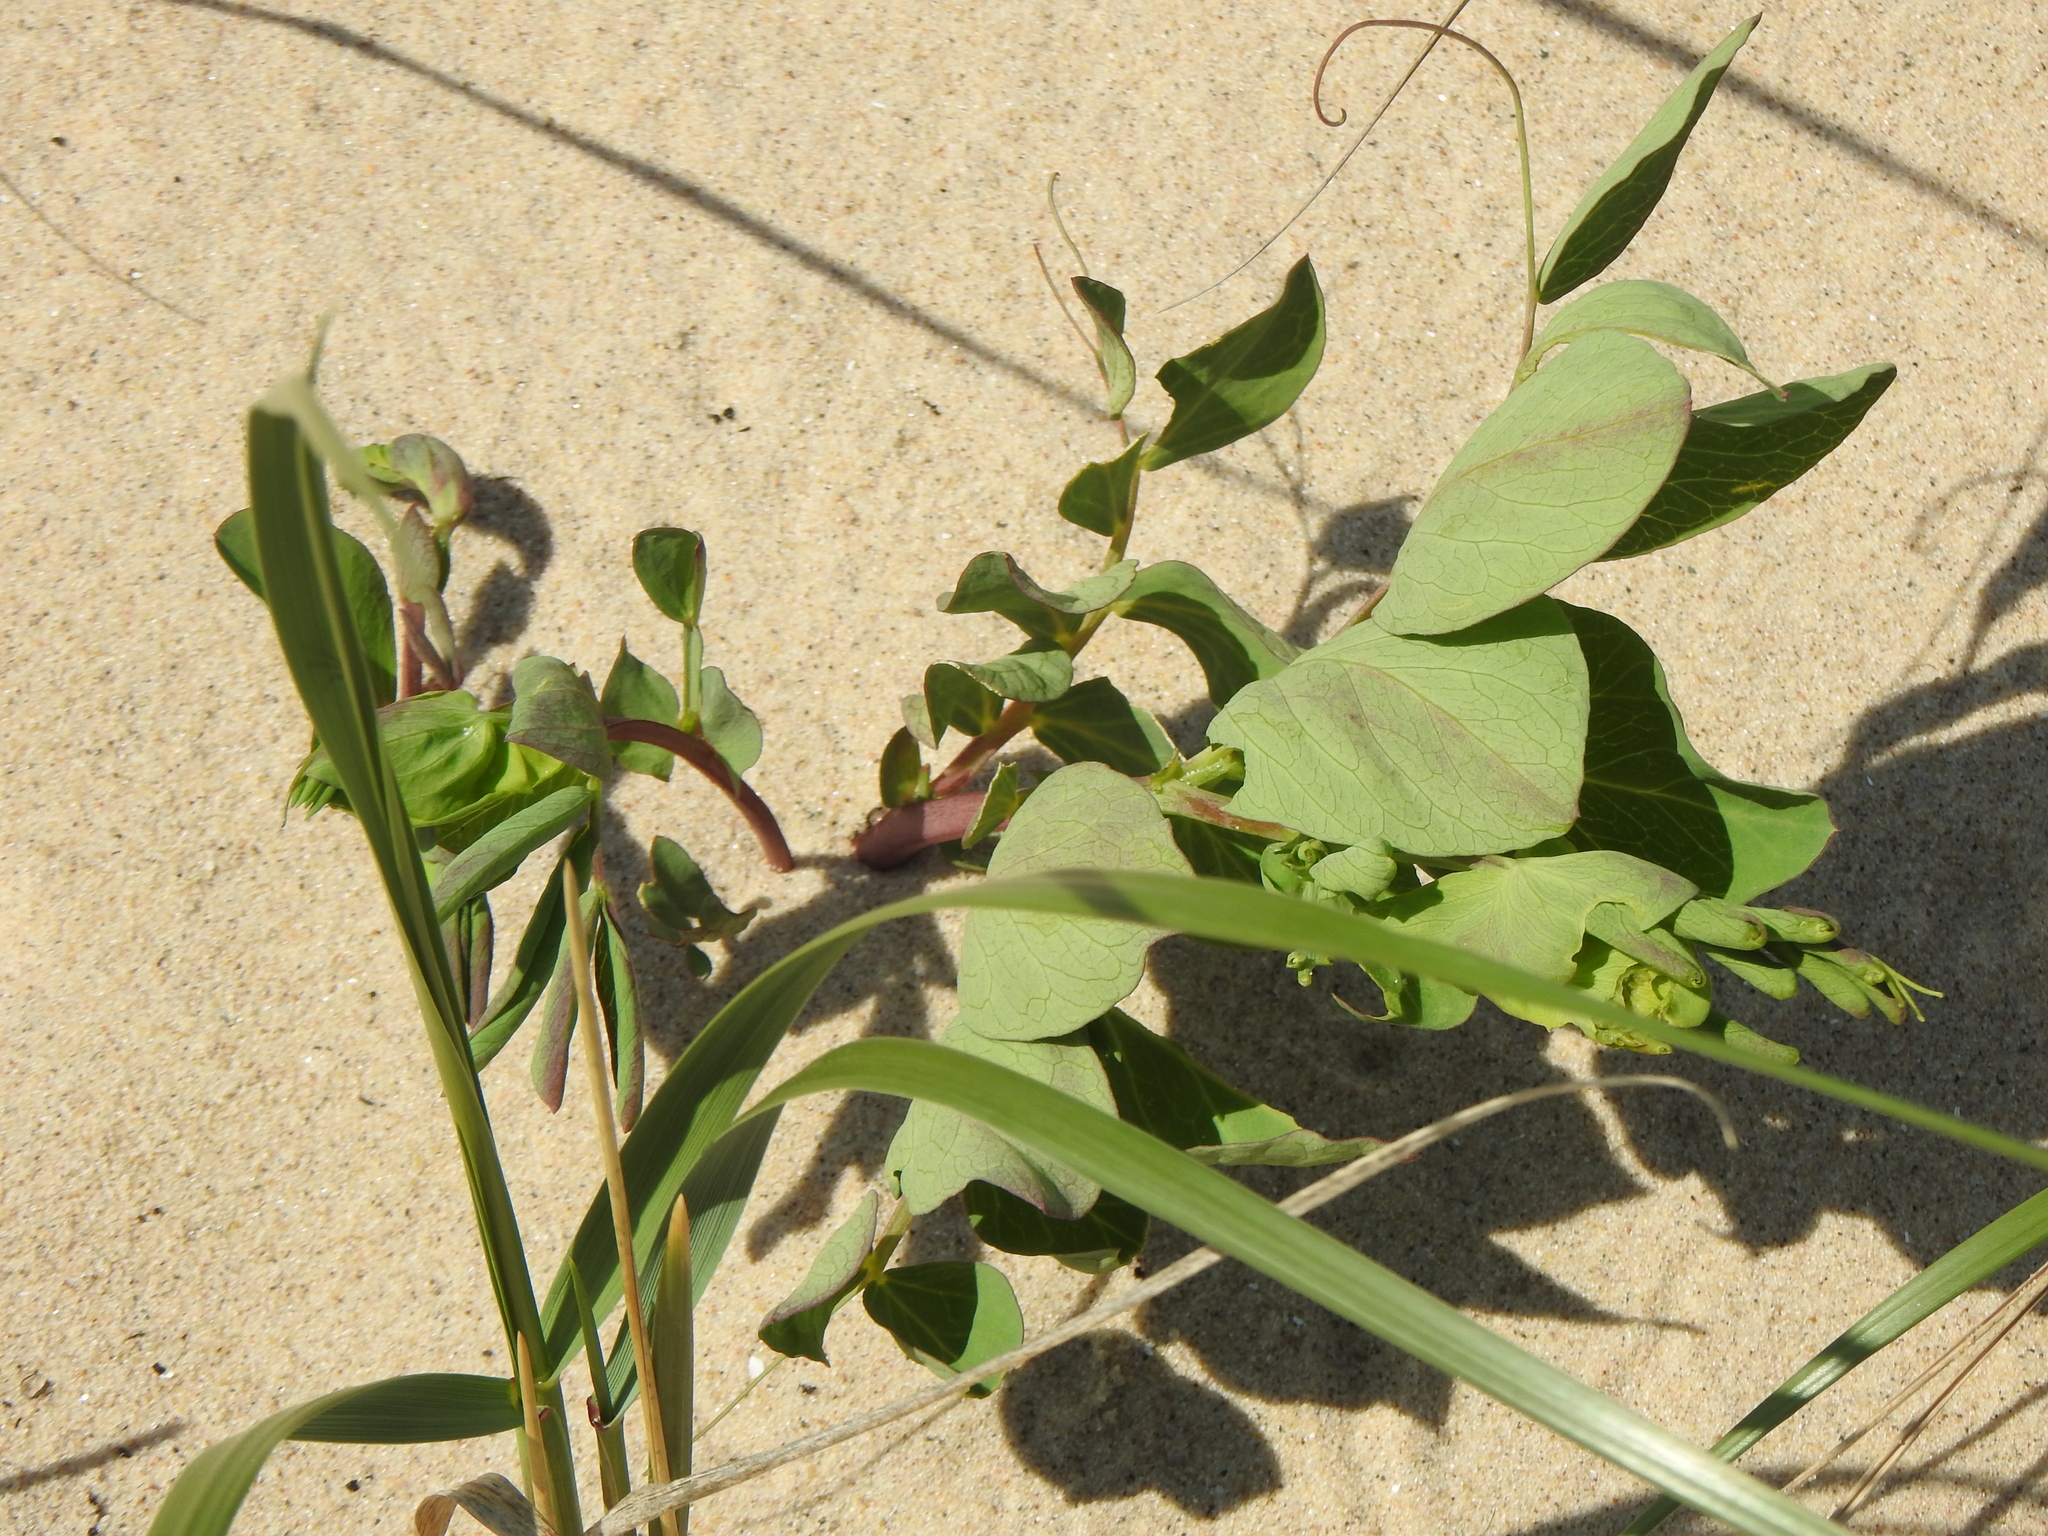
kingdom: Plantae
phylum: Tracheophyta
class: Magnoliopsida
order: Fabales
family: Fabaceae
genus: Lathyrus
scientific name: Lathyrus japonicus
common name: Sea pea
